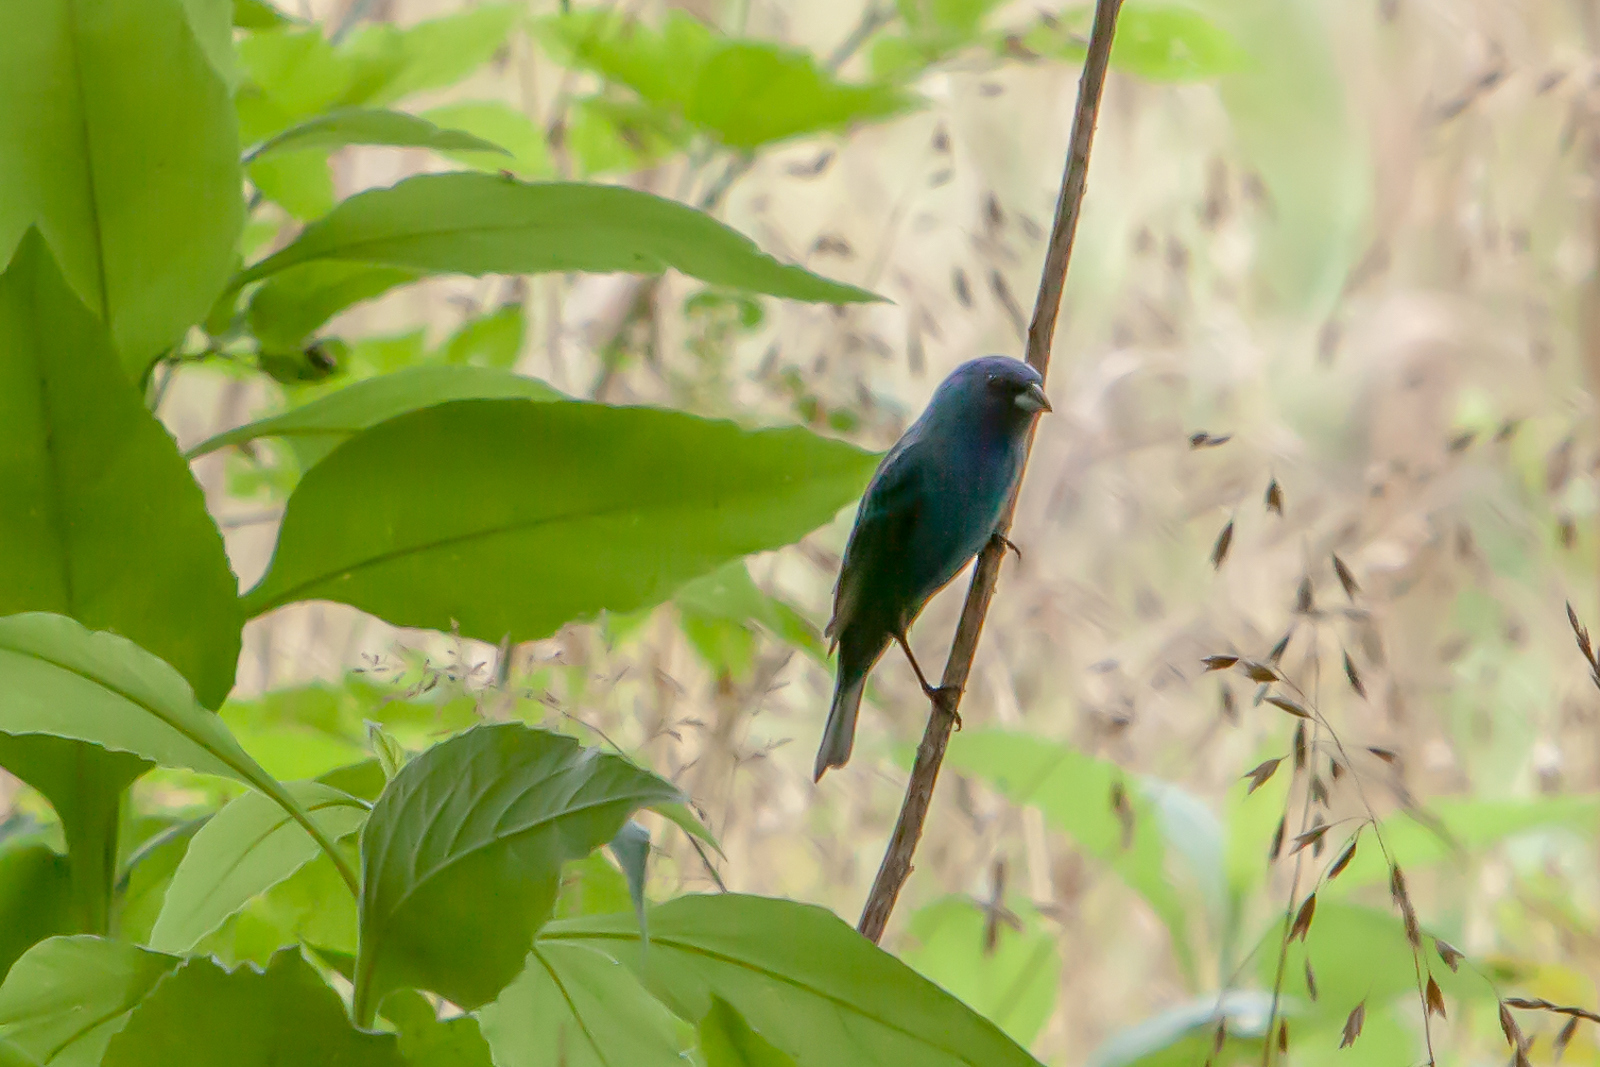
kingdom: Animalia
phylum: Chordata
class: Aves
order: Passeriformes
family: Cardinalidae
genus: Passerina
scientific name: Passerina cyanea
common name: Indigo bunting
